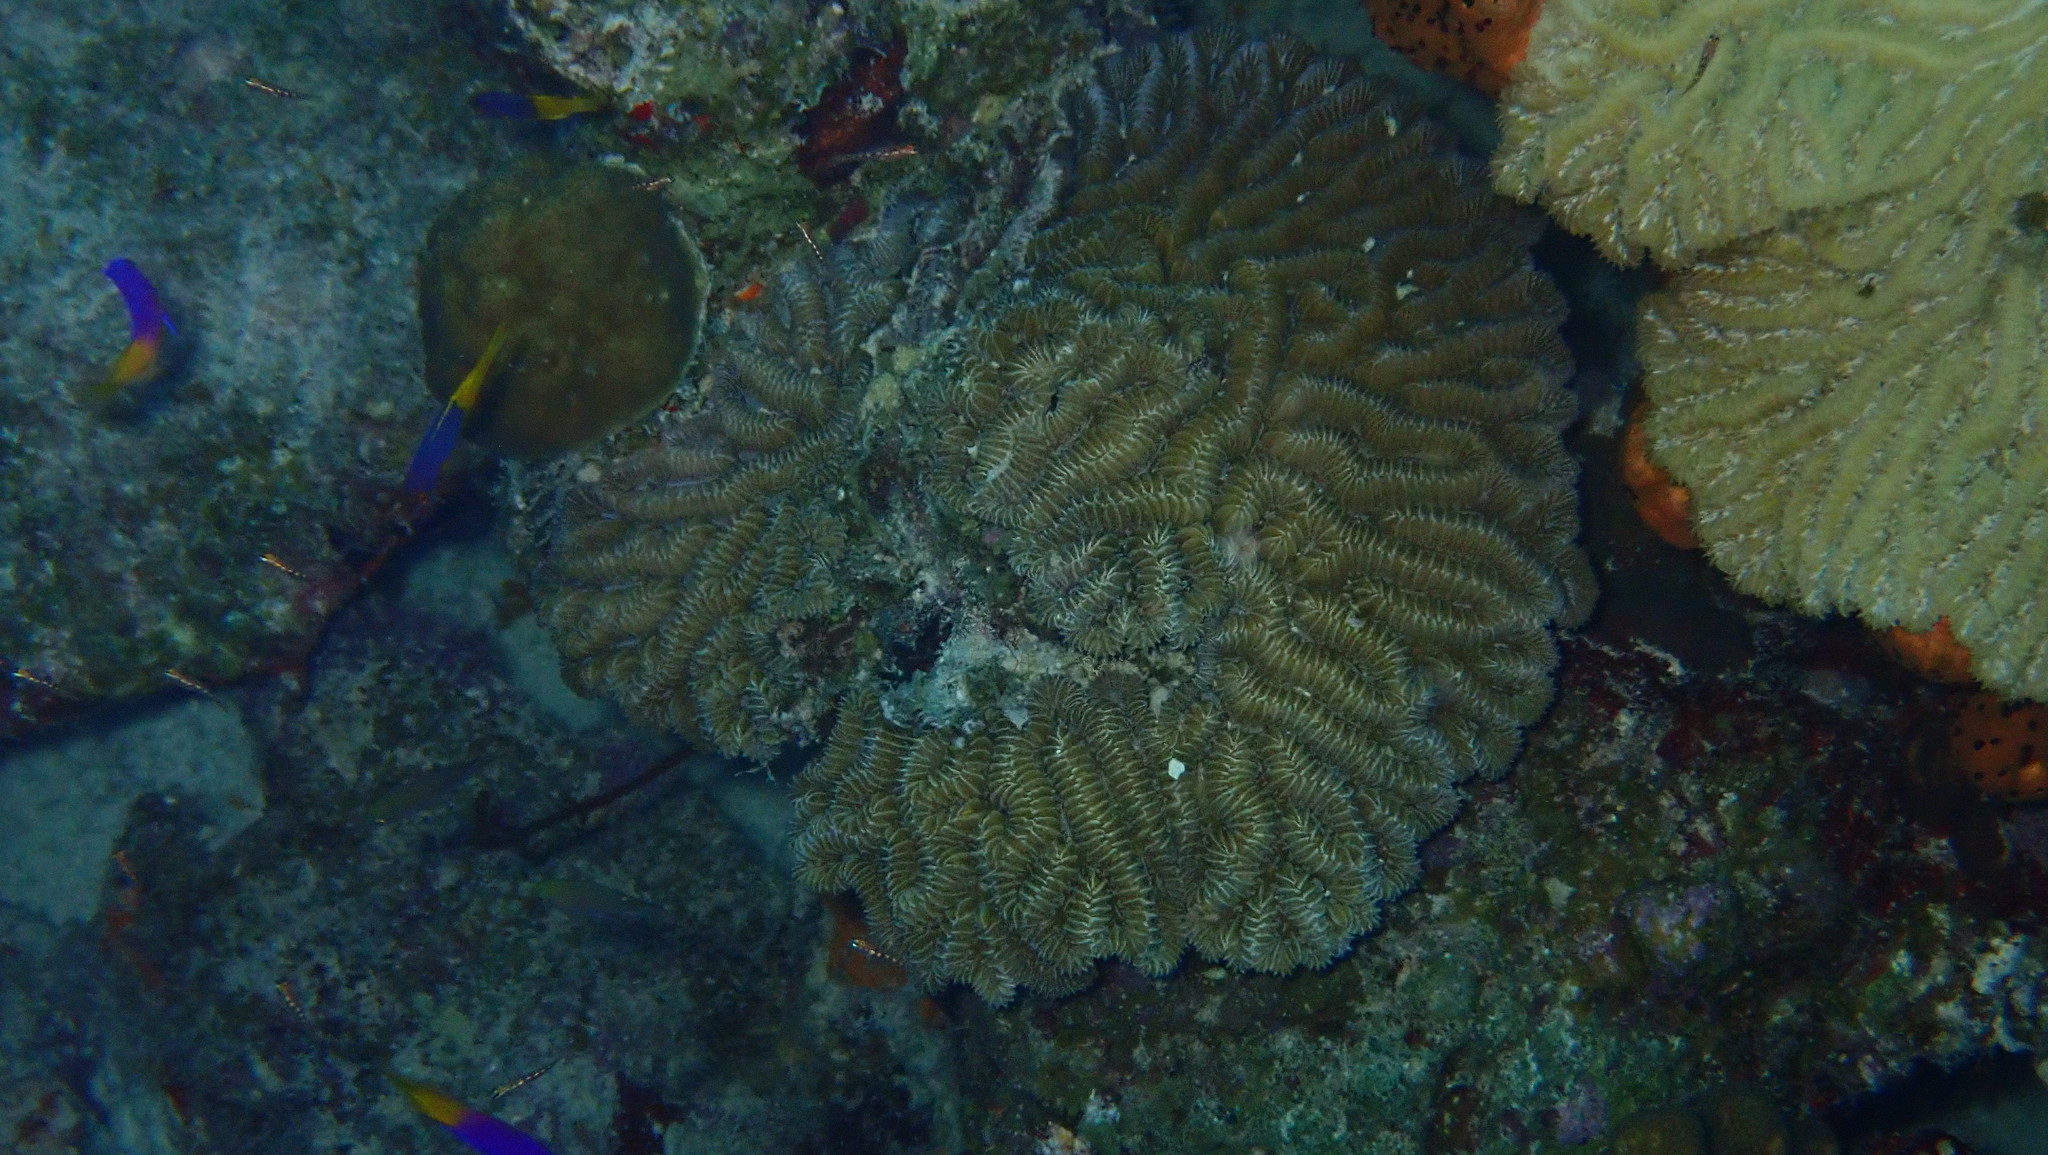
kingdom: Animalia
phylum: Cnidaria
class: Anthozoa
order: Scleractinia
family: Meandrinidae
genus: Meandrina
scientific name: Meandrina meandrites
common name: Maze coral
